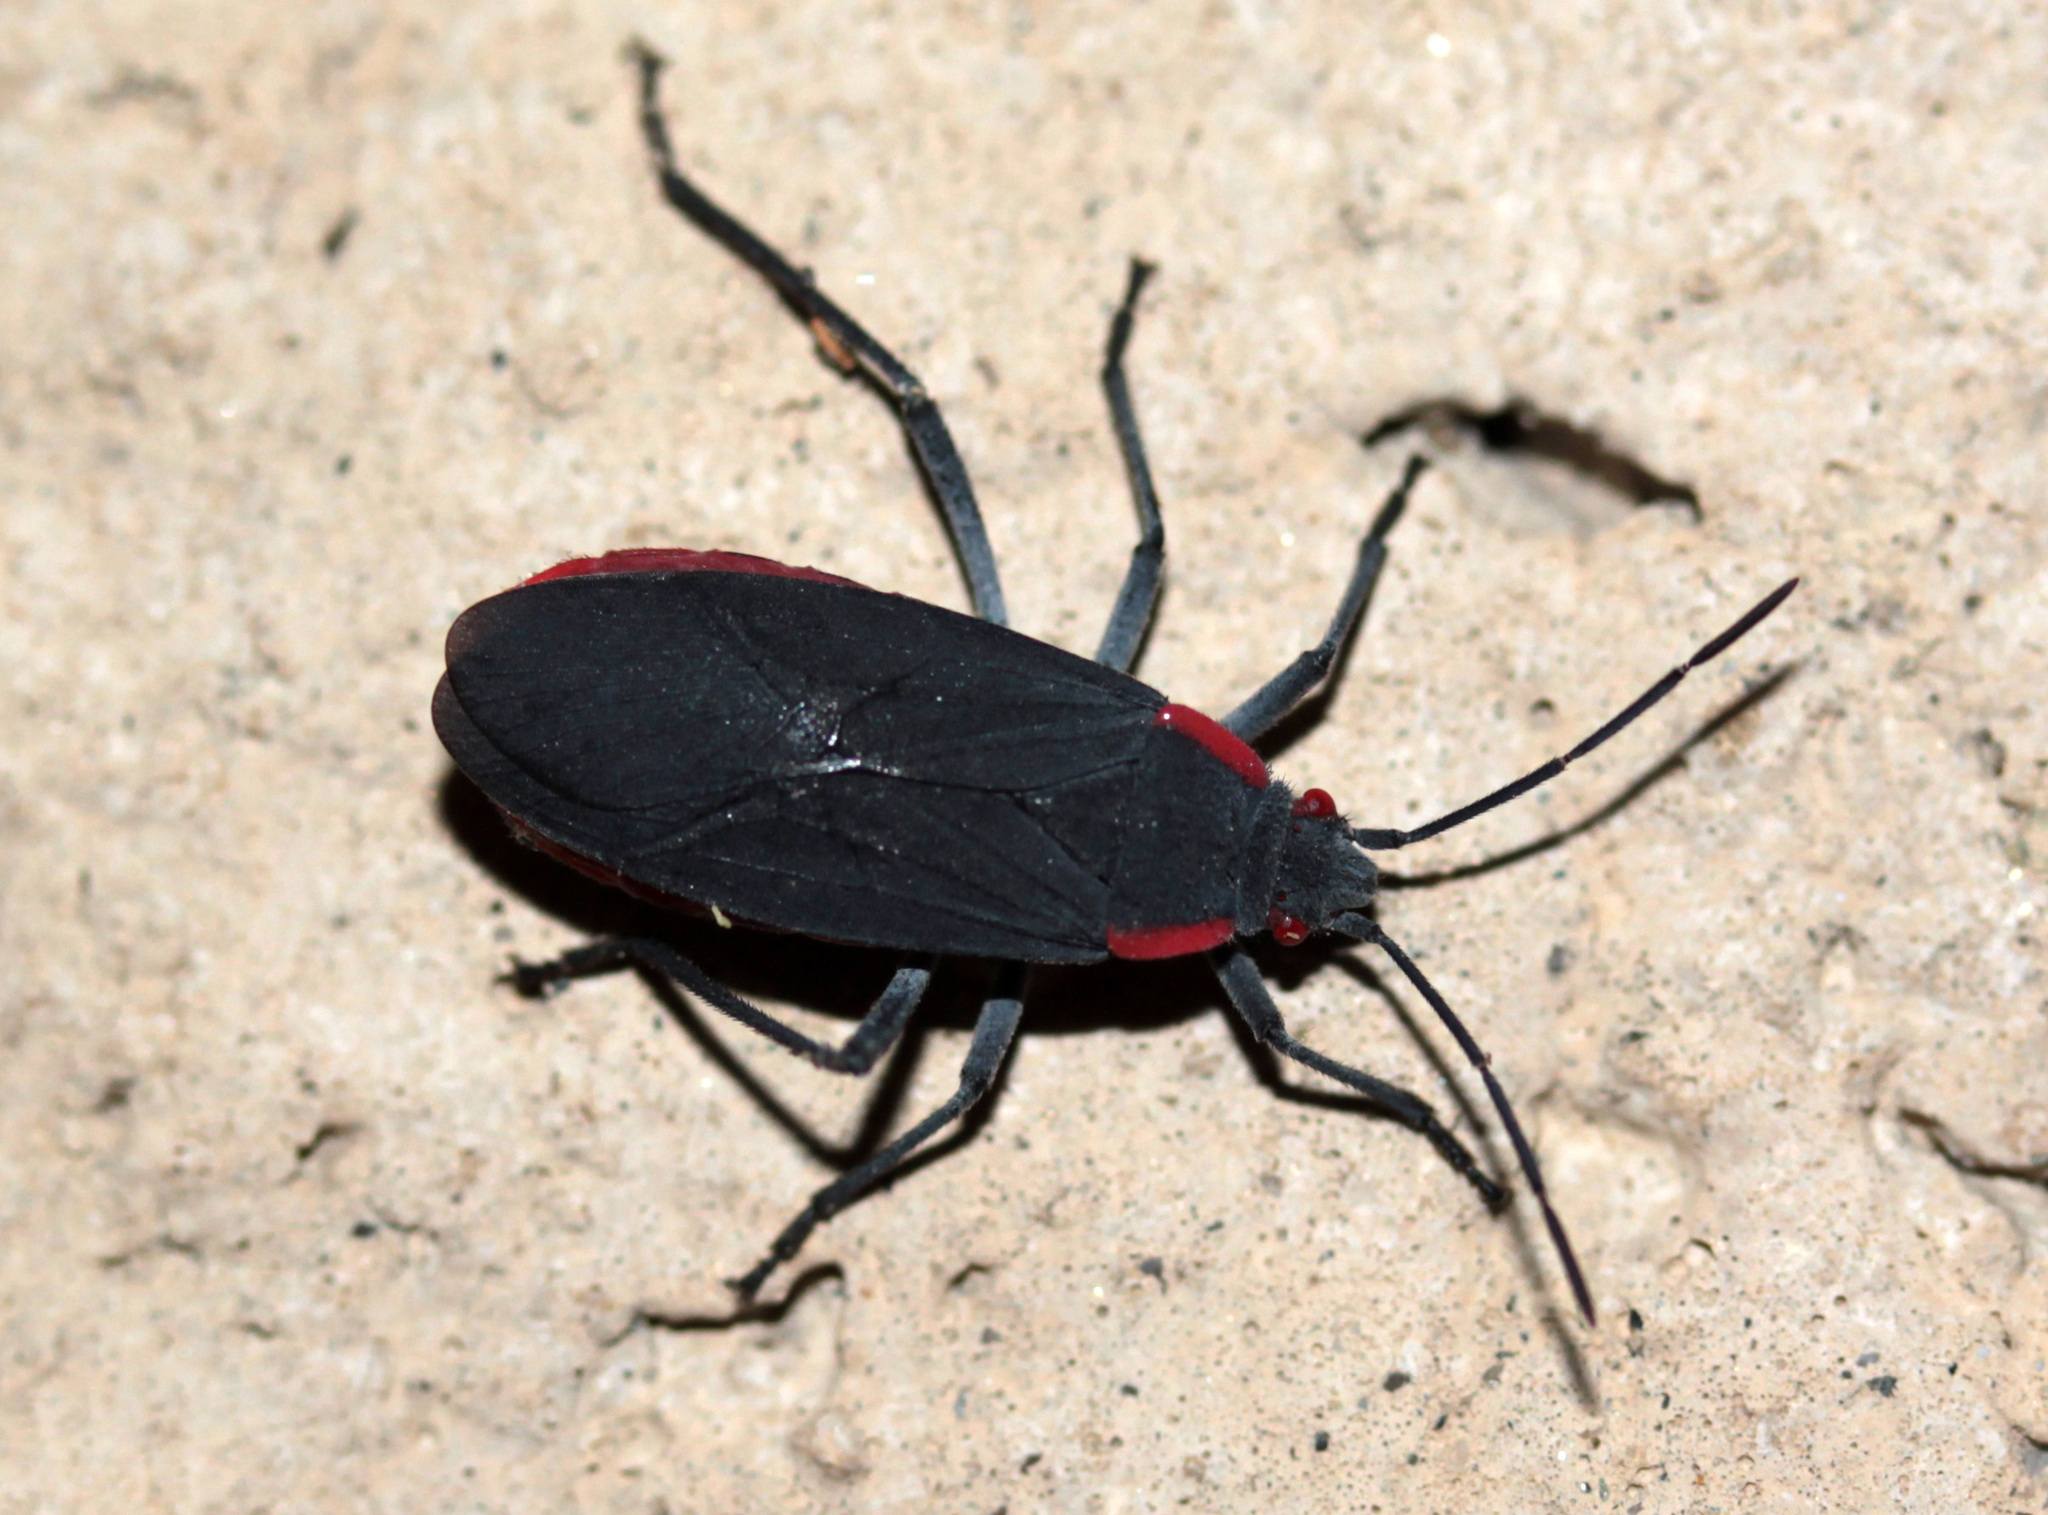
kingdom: Animalia
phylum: Arthropoda
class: Insecta
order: Hemiptera
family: Rhopalidae
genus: Jadera
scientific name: Jadera haematoloma
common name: Red-shouldered bug
